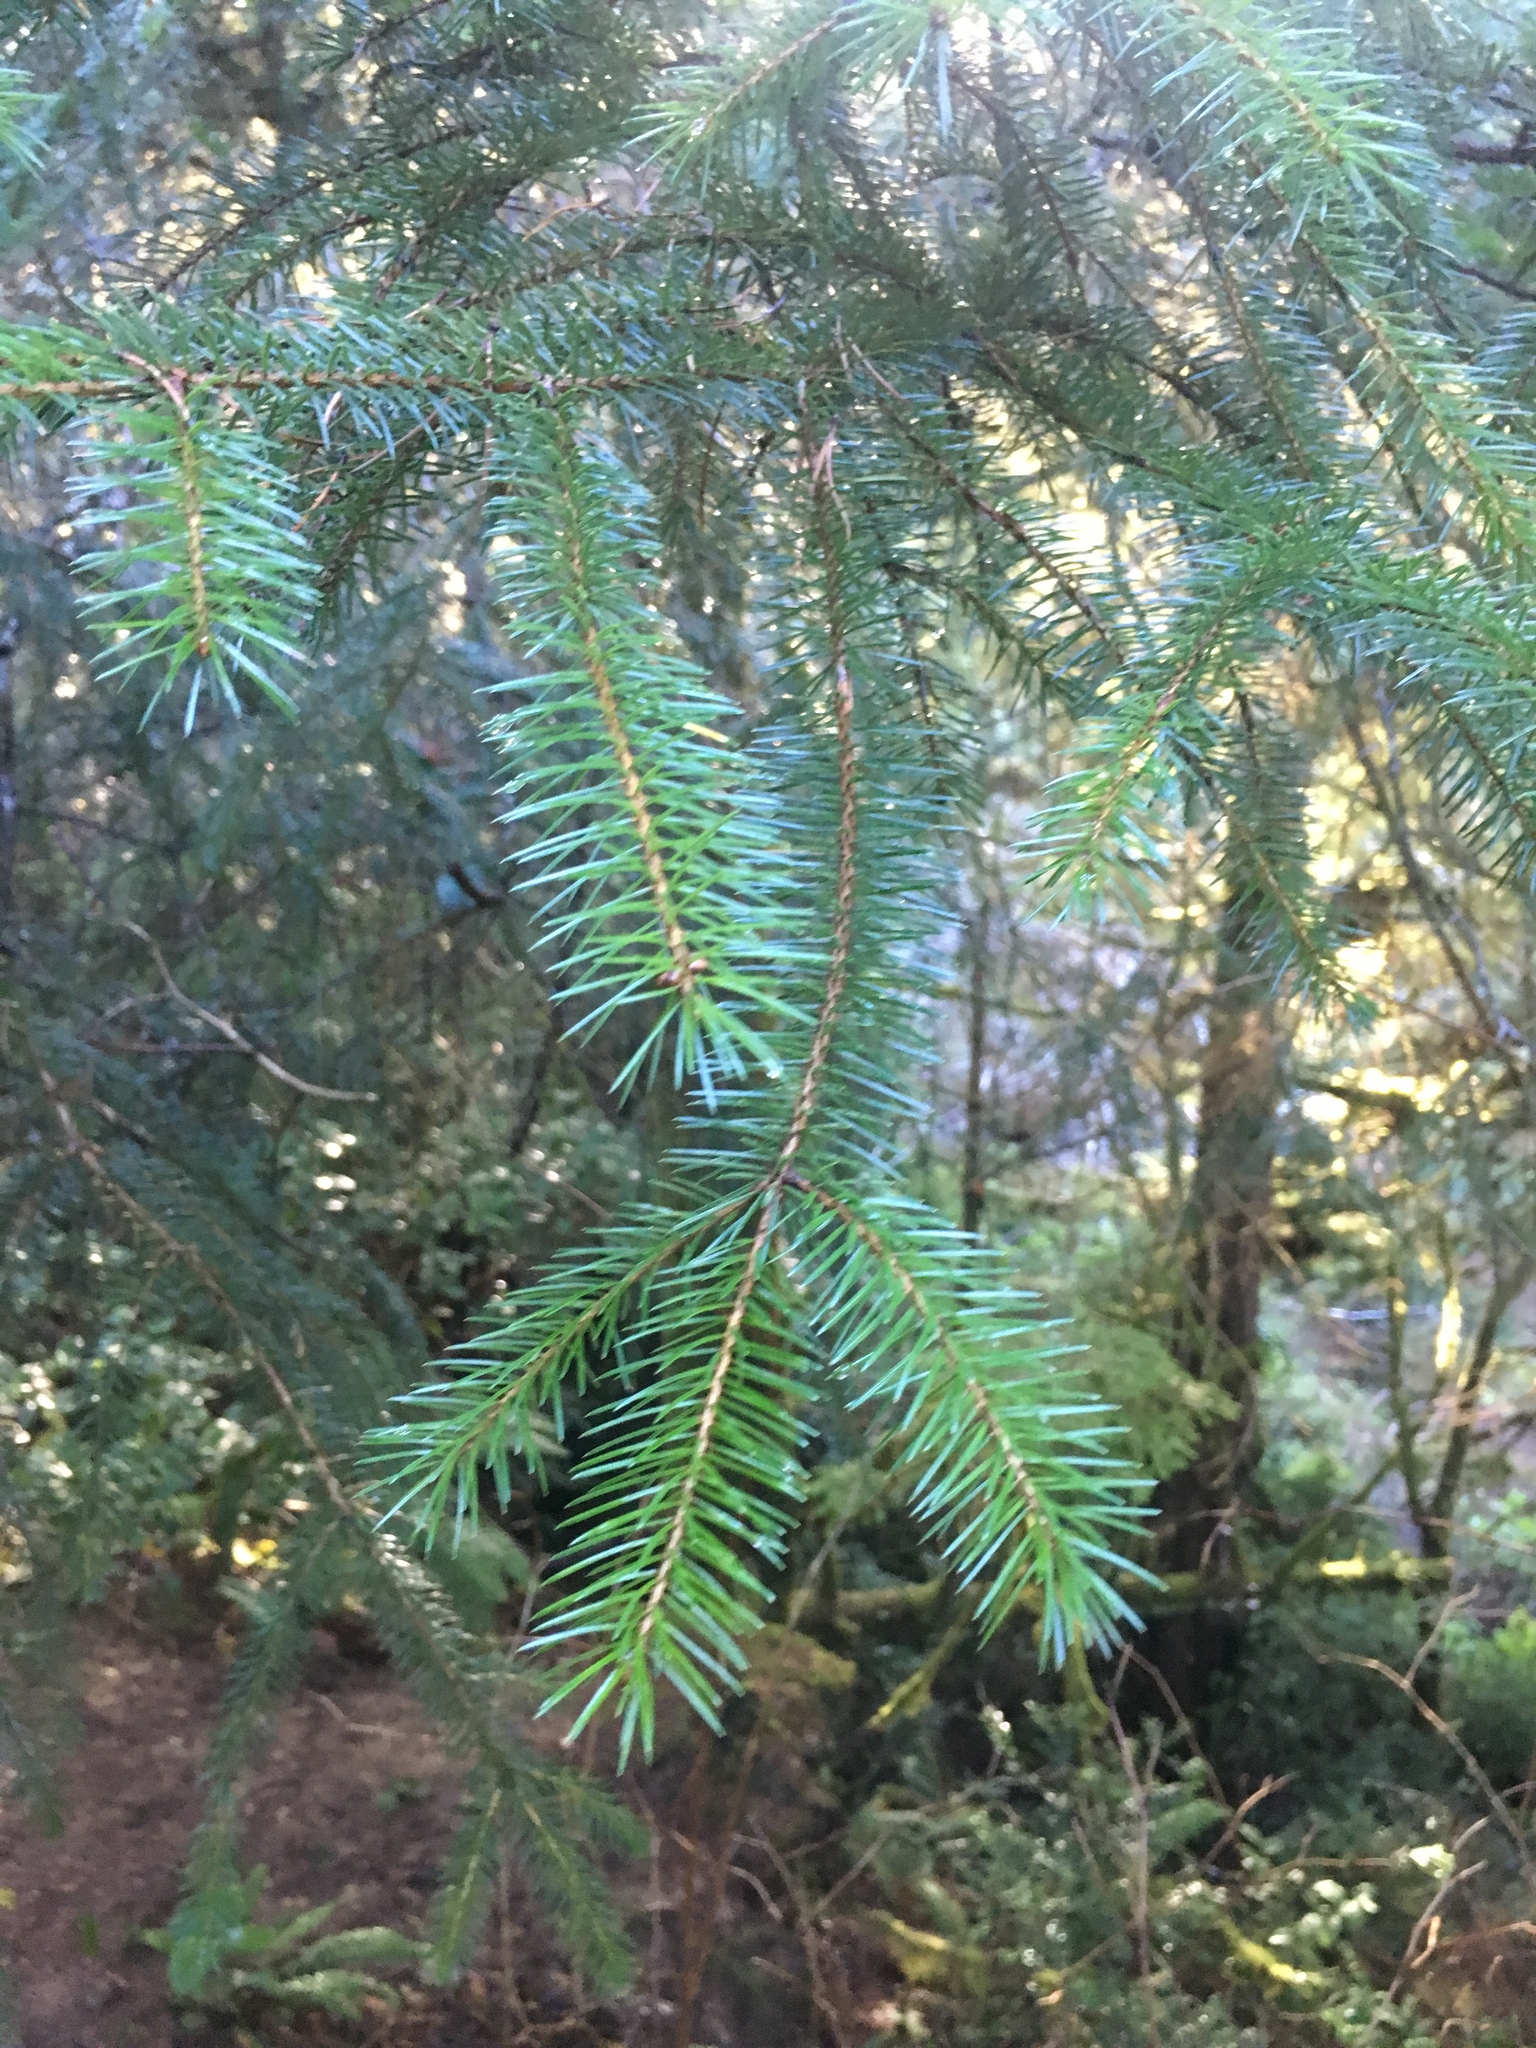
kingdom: Plantae
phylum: Tracheophyta
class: Pinopsida
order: Pinales
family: Pinaceae
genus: Picea
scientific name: Picea sitchensis
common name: Sitka spruce
